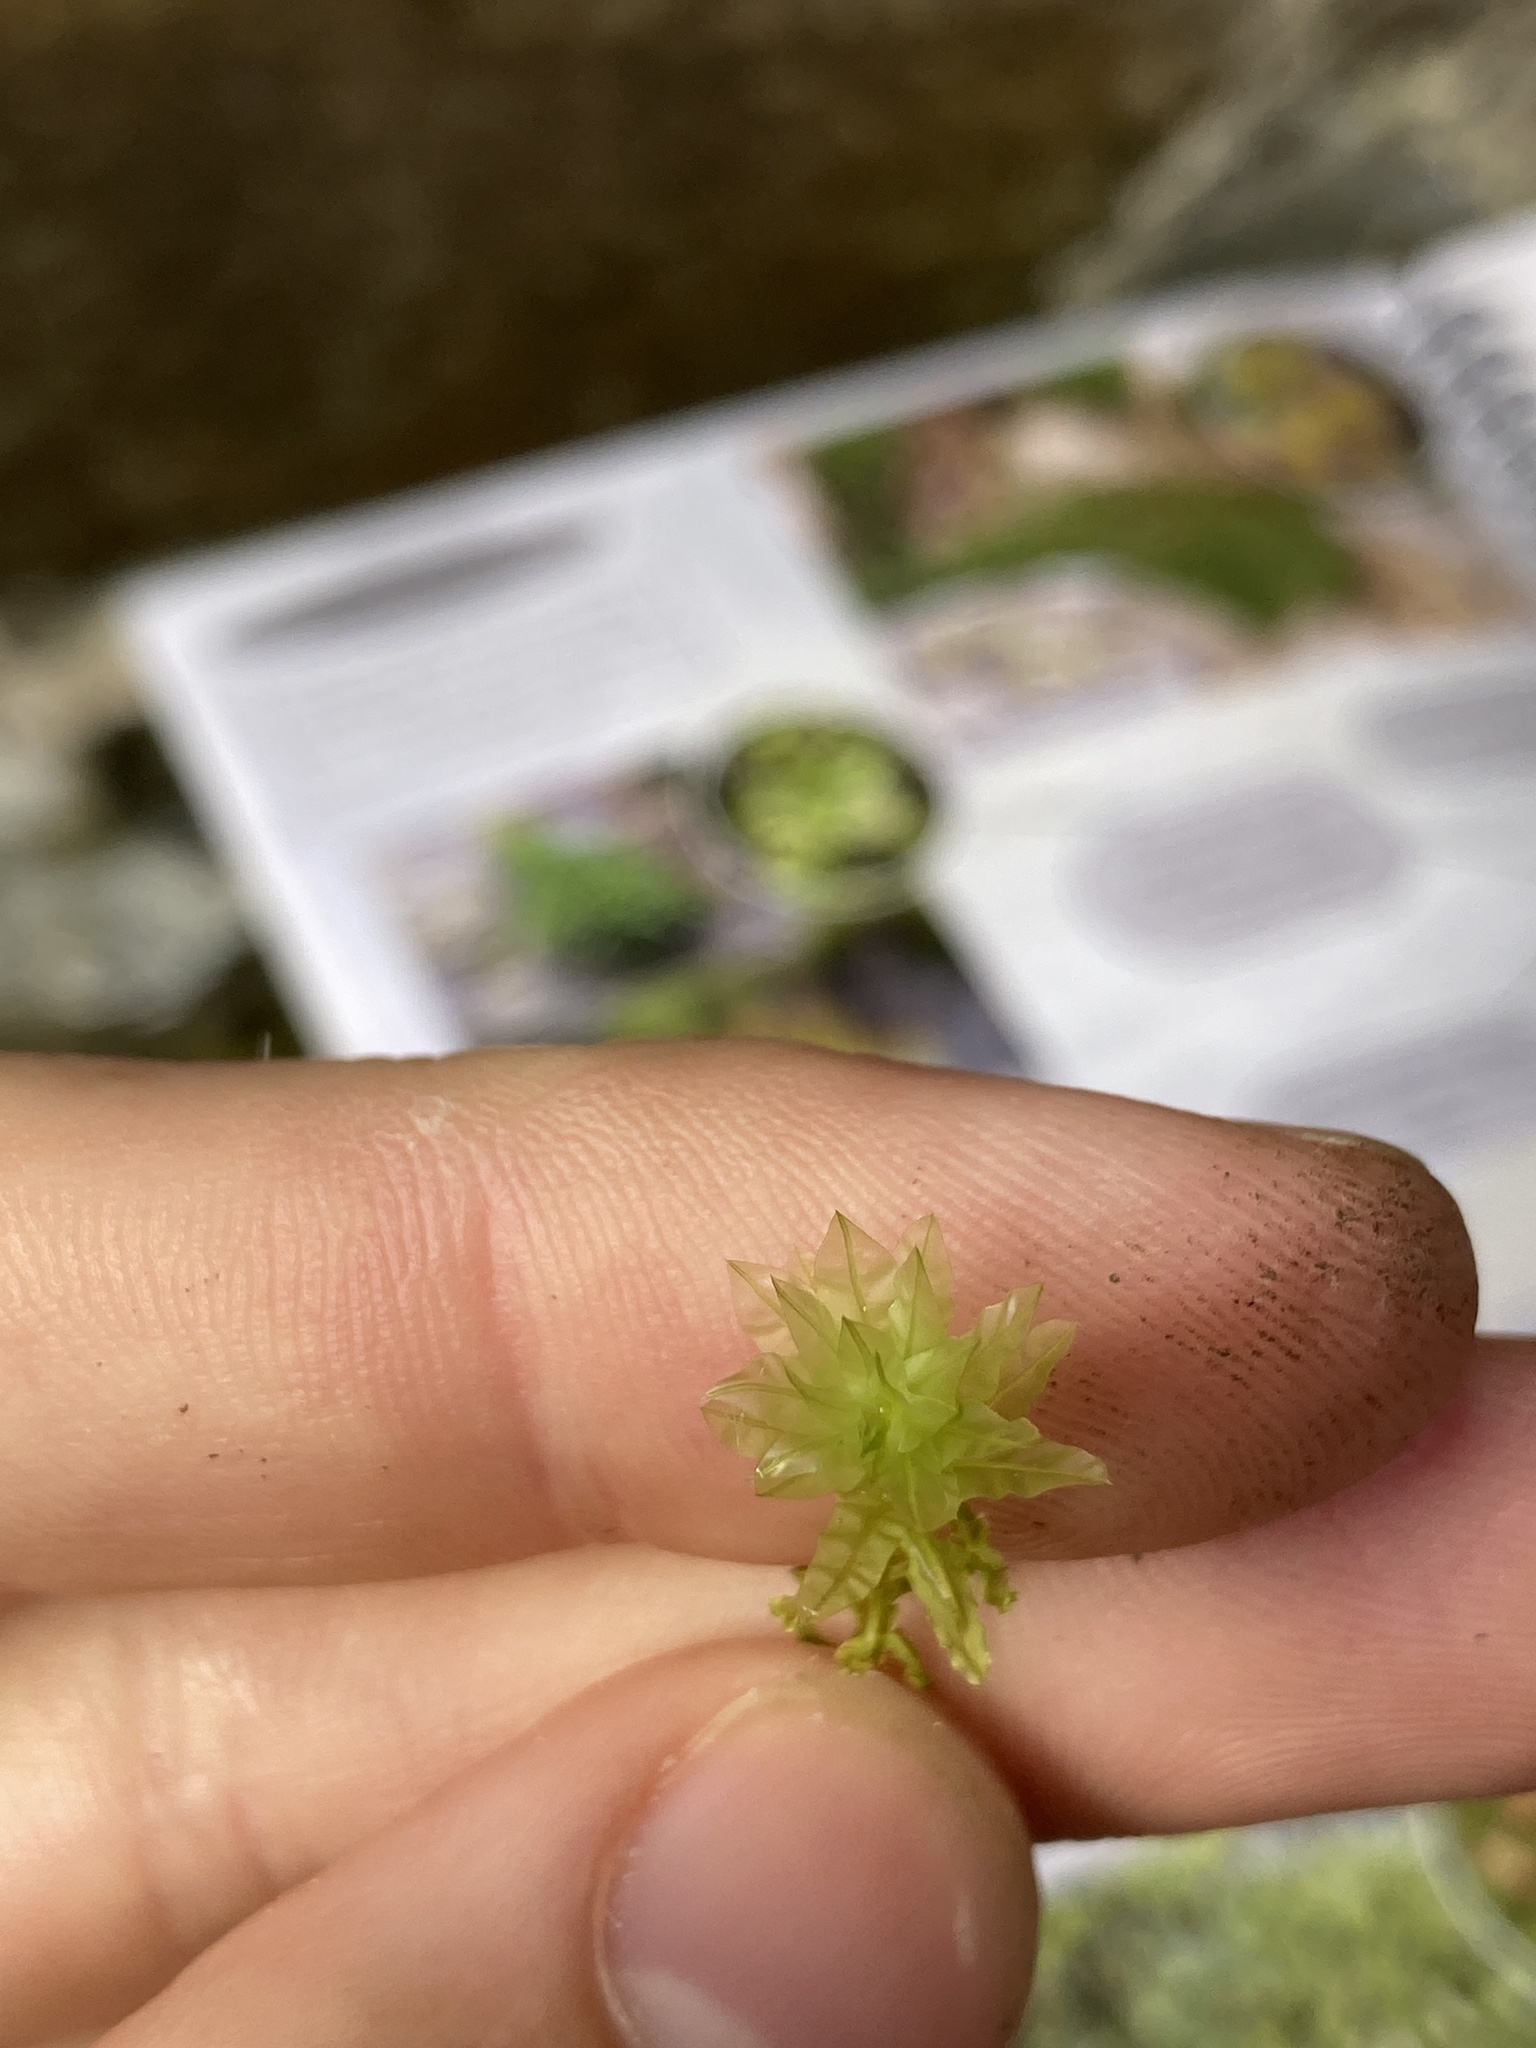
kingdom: Plantae
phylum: Bryophyta
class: Bryopsida
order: Bryales
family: Mniaceae
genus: Plagiomnium
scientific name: Plagiomnium undulatum
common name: Hart's-tongue thyme-moss
